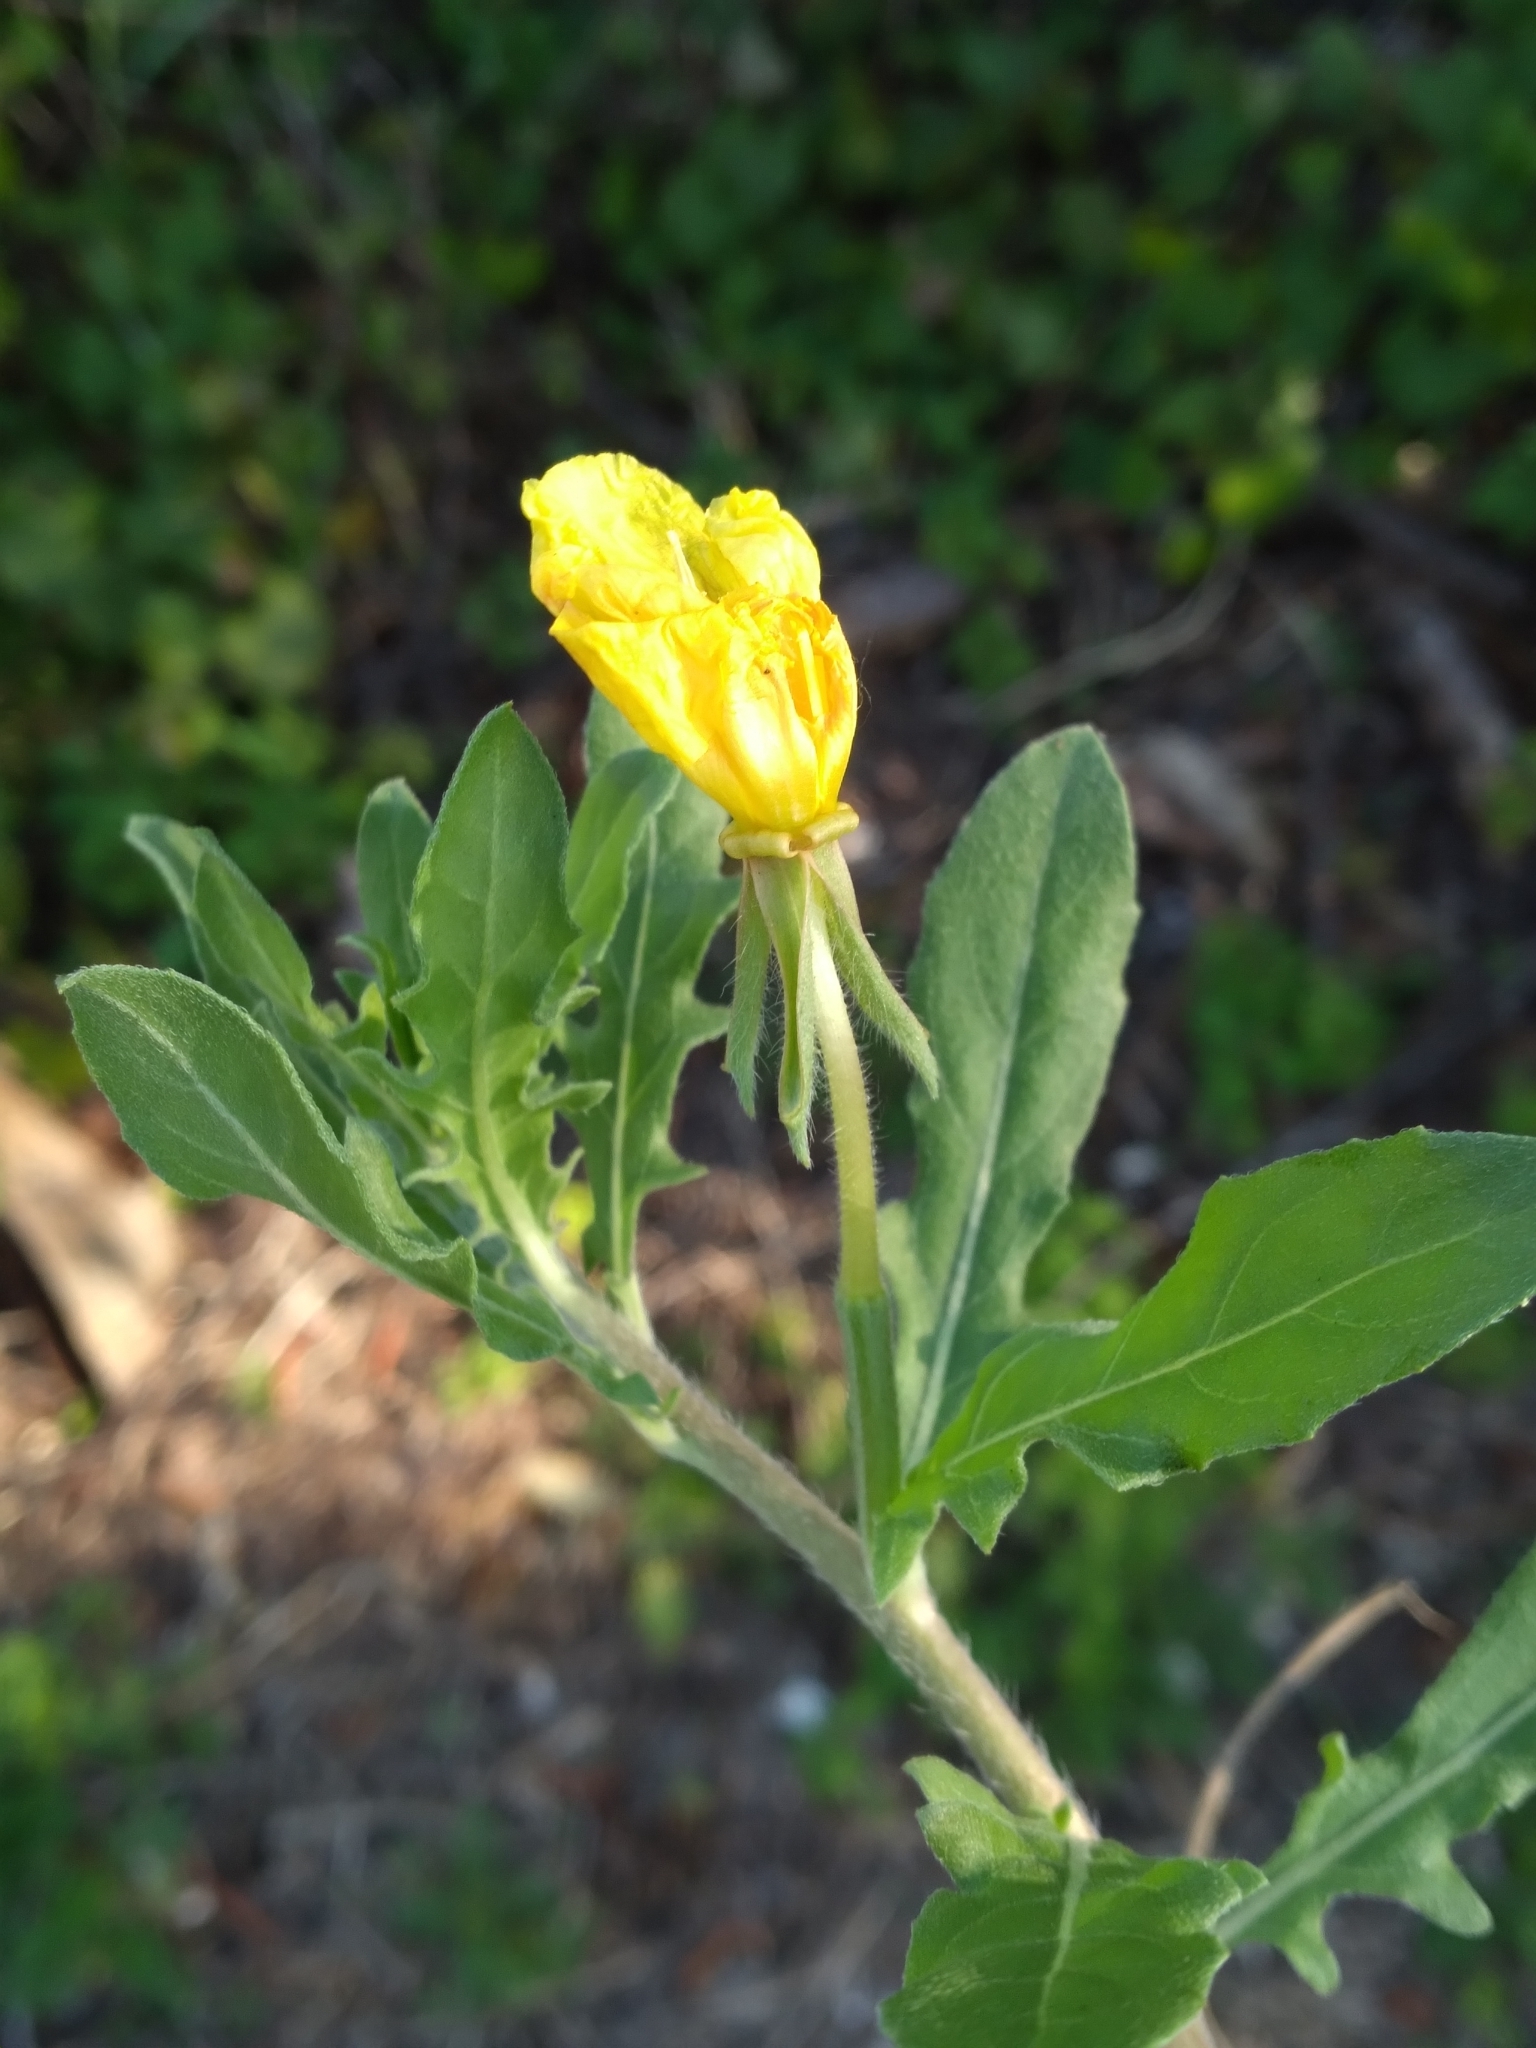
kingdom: Plantae
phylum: Tracheophyta
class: Magnoliopsida
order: Myrtales
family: Onagraceae
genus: Oenothera
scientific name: Oenothera laciniata
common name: Cut-leaved evening-primrose
